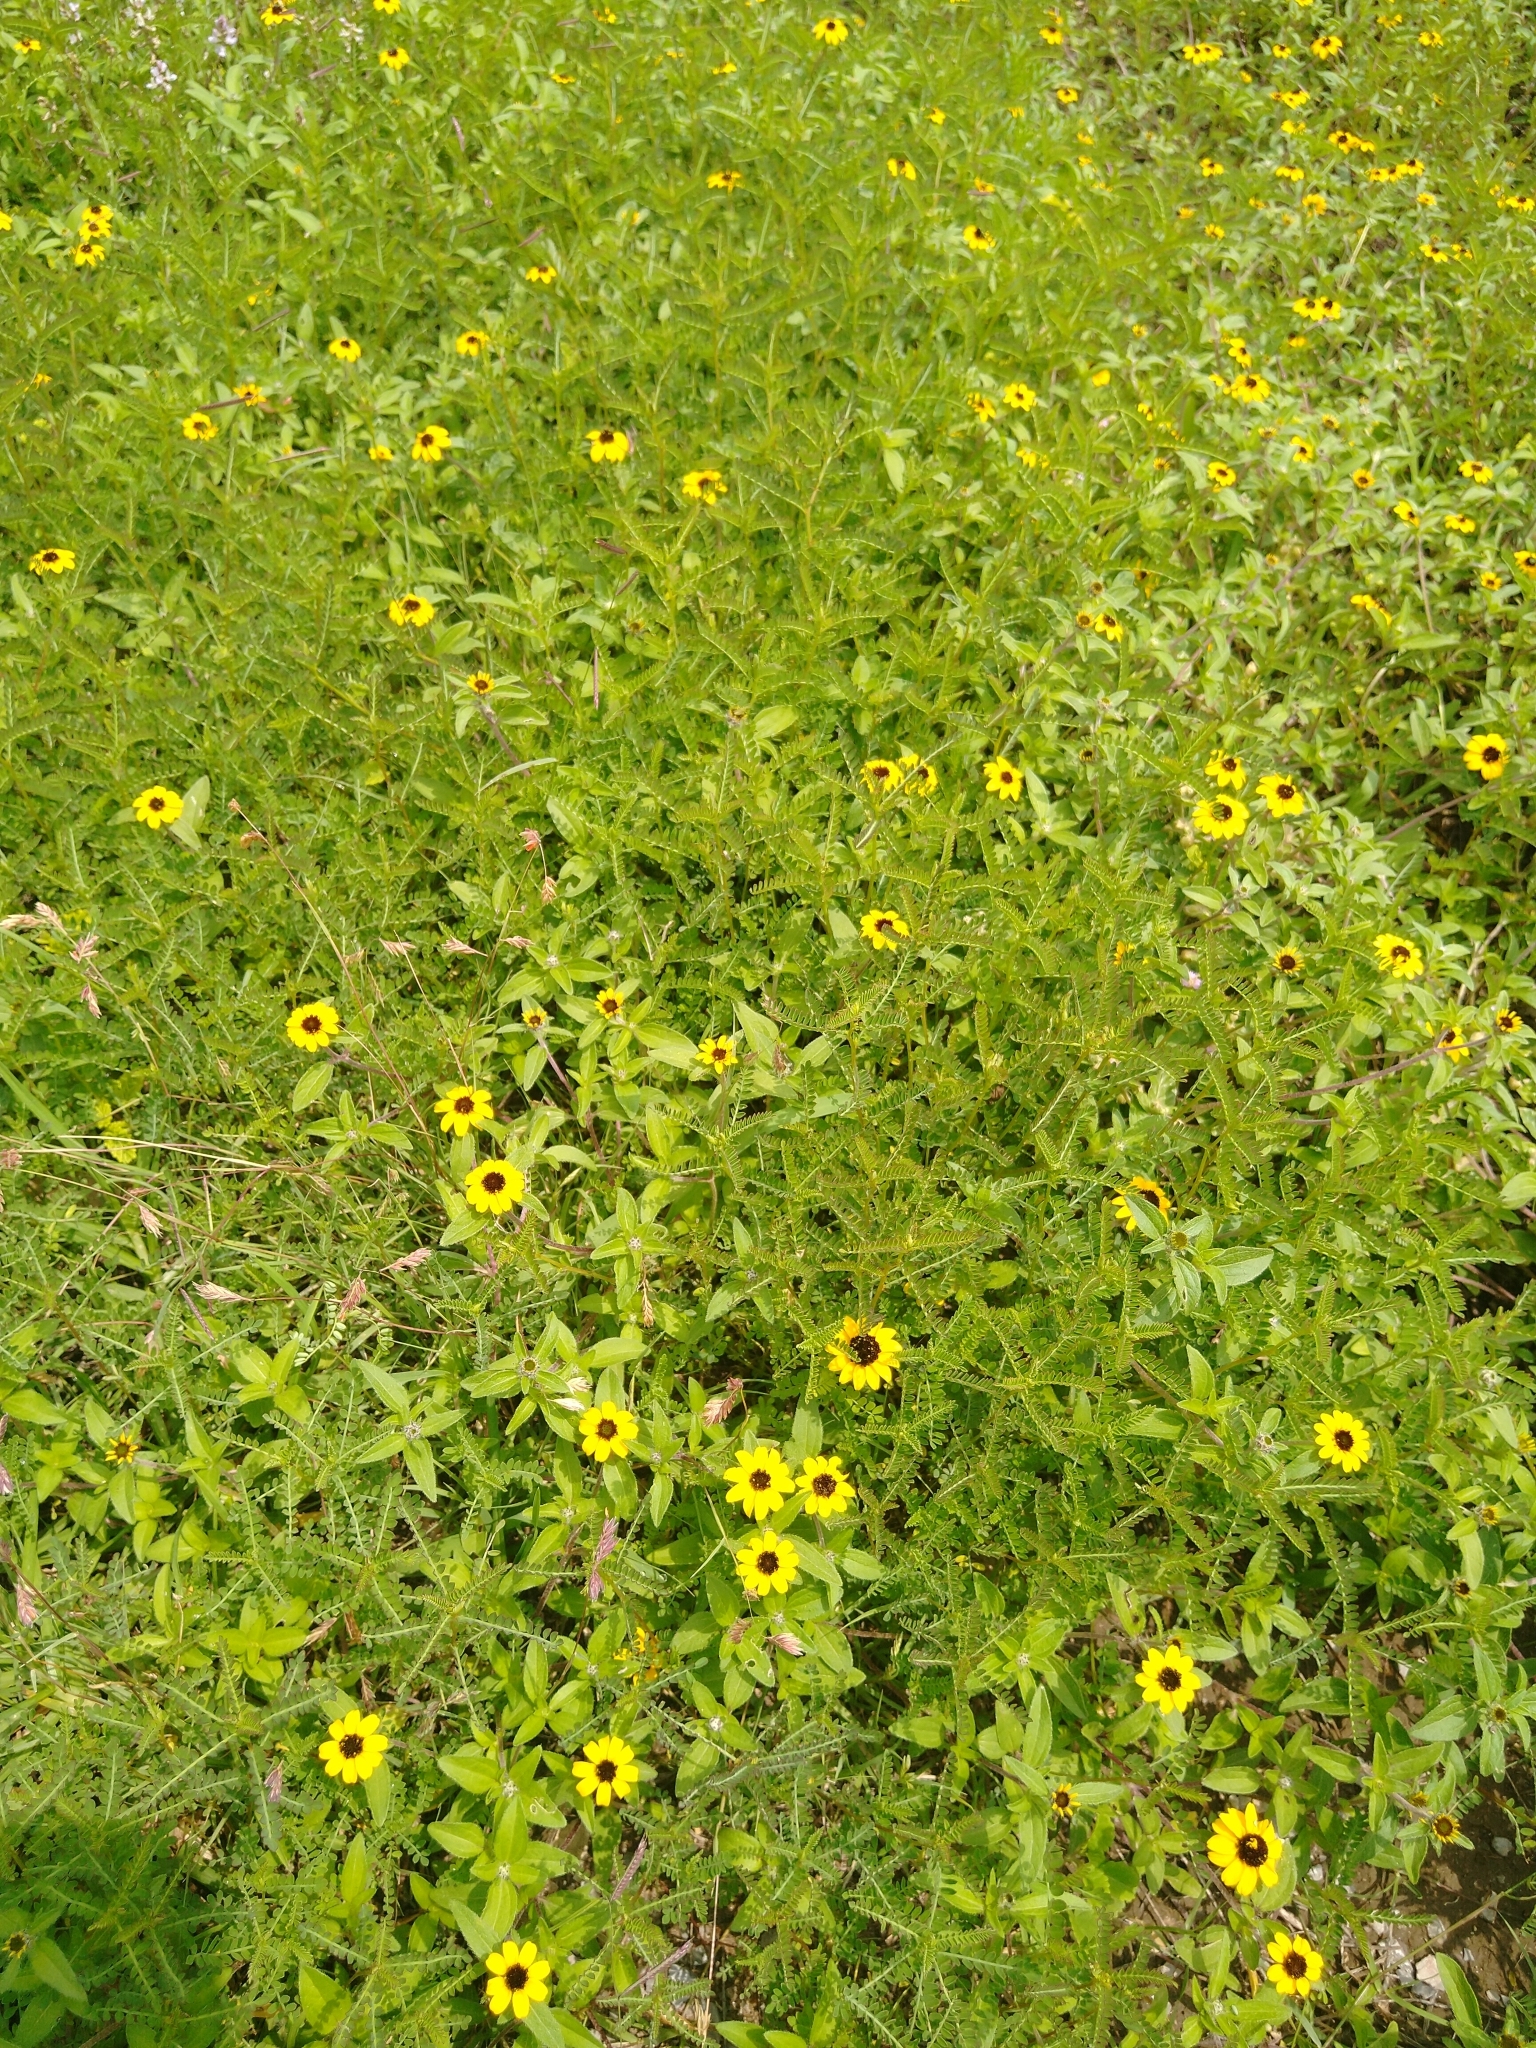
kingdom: Plantae
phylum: Tracheophyta
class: Magnoliopsida
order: Asterales
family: Asteraceae
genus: Sanvitalia
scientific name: Sanvitalia procumbens
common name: Mexican creeping zinnia
